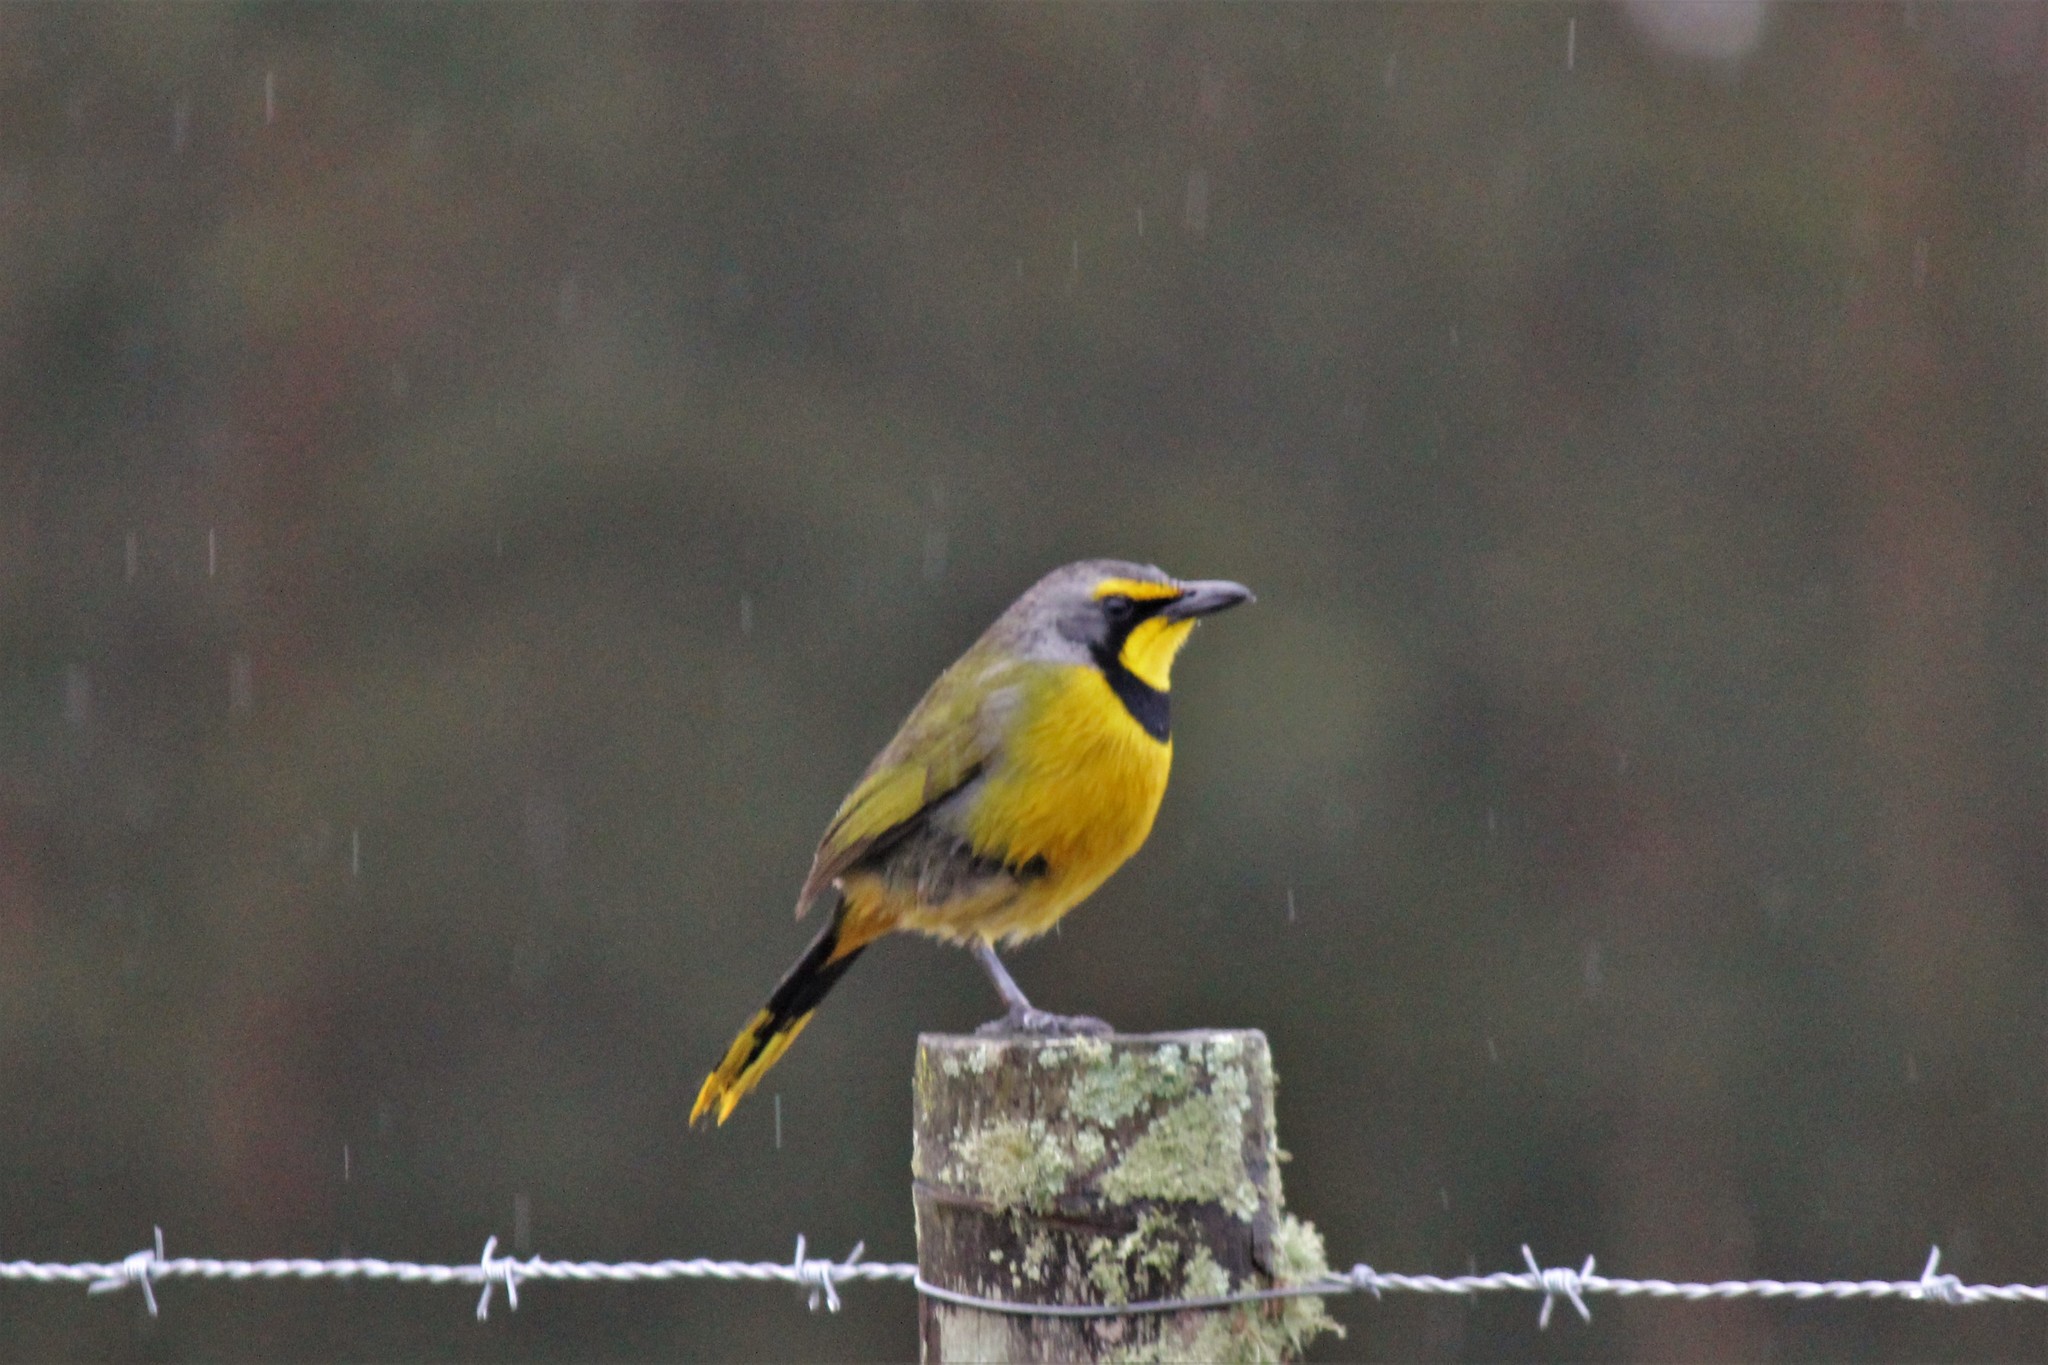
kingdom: Animalia
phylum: Chordata
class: Aves
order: Passeriformes
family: Malaconotidae
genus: Telophorus
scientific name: Telophorus zeylonus
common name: Bokmakierie
